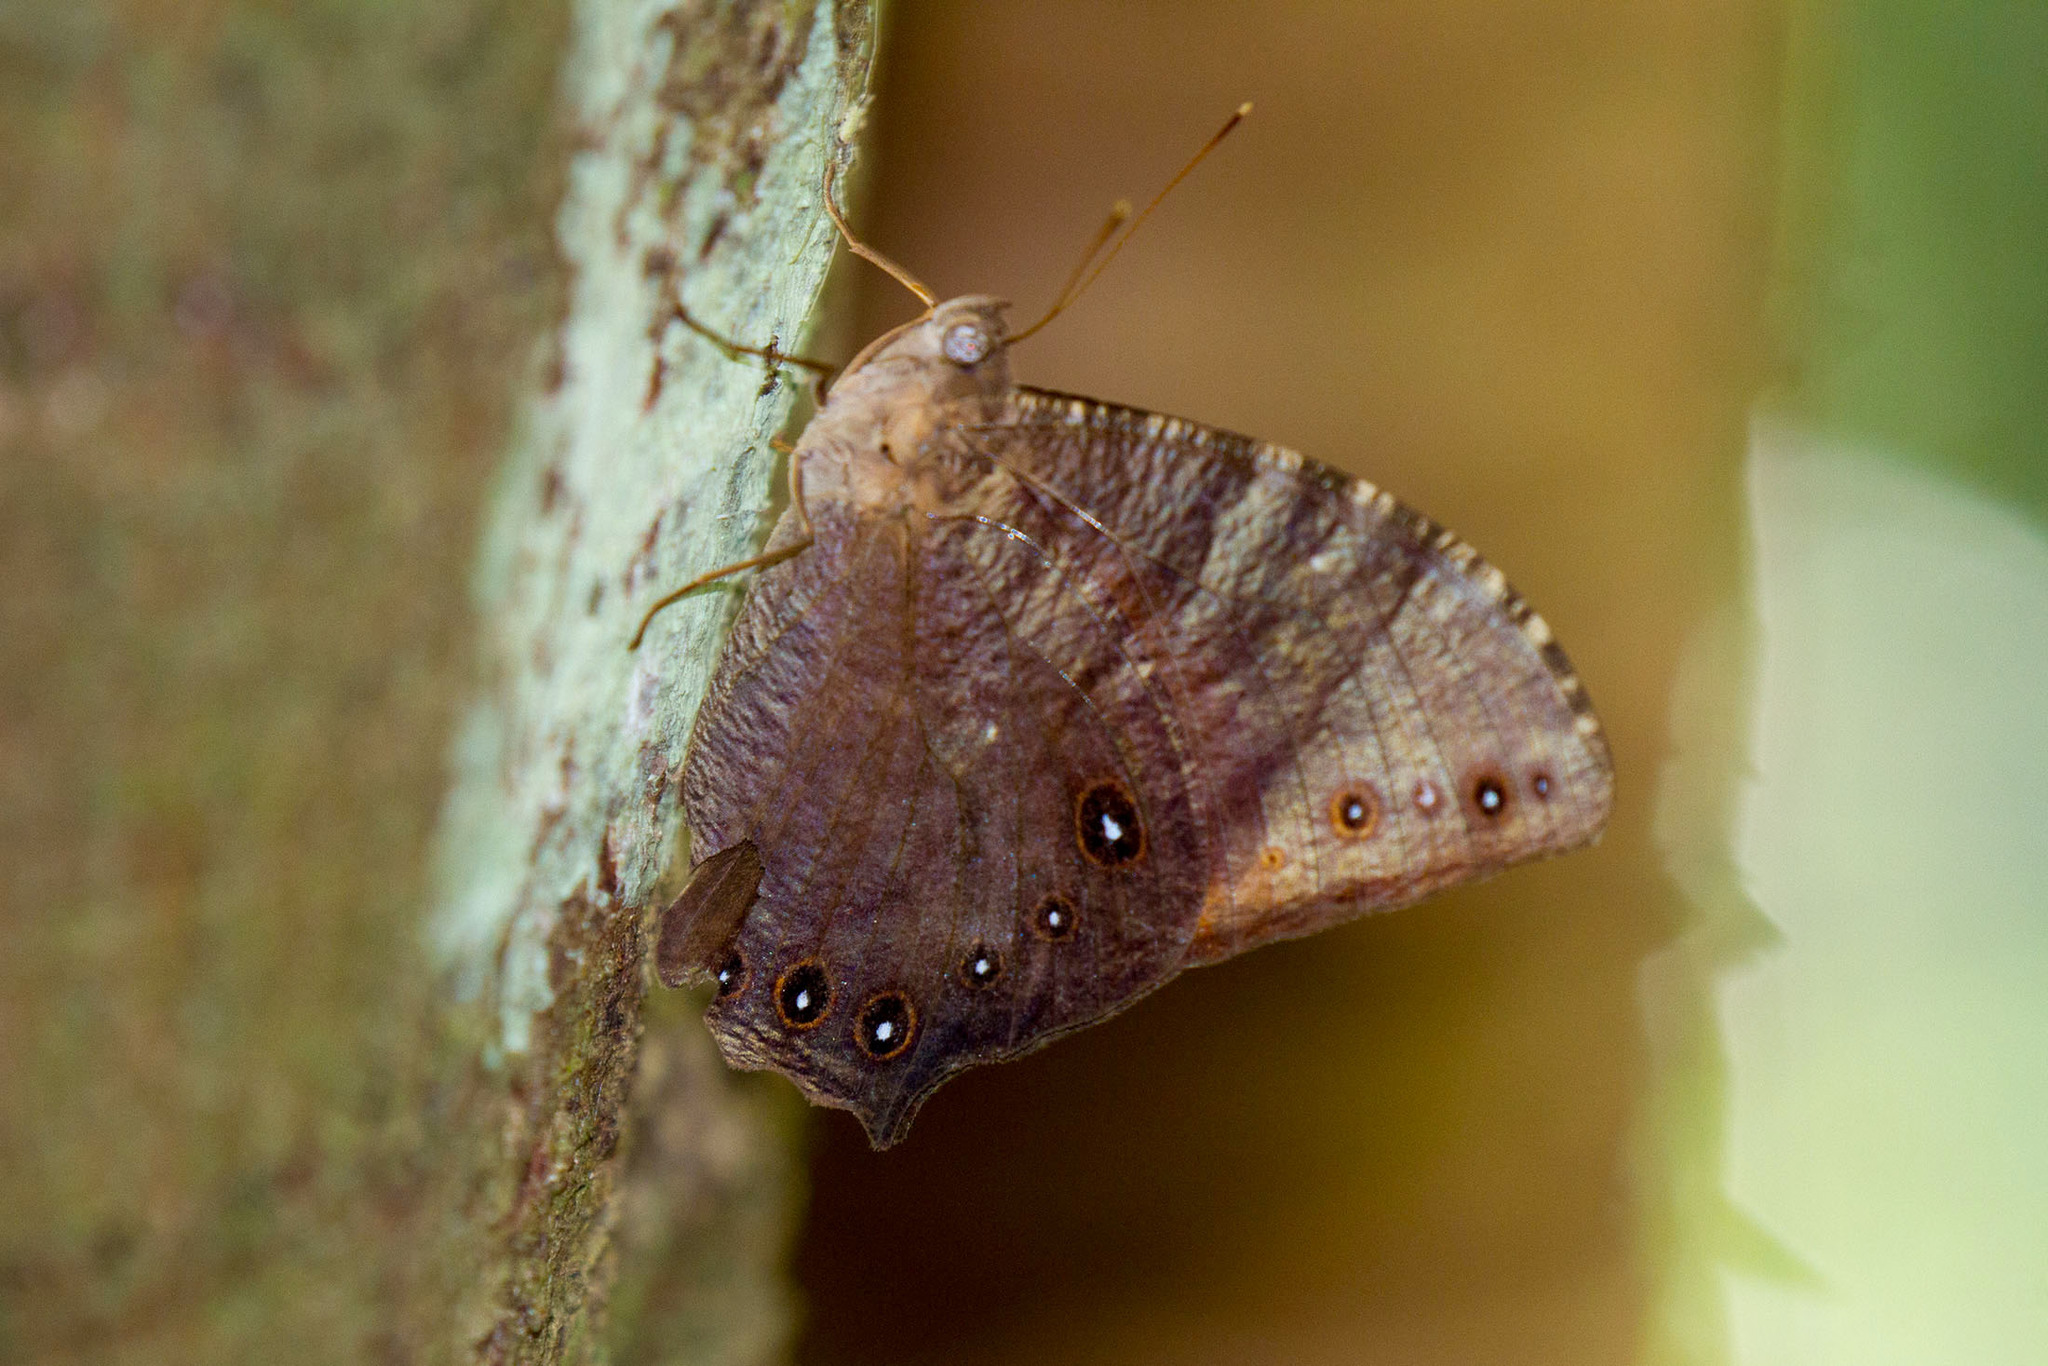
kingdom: Animalia
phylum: Arthropoda
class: Insecta
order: Lepidoptera
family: Nymphalidae
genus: Melanitis
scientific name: Melanitis constantia
